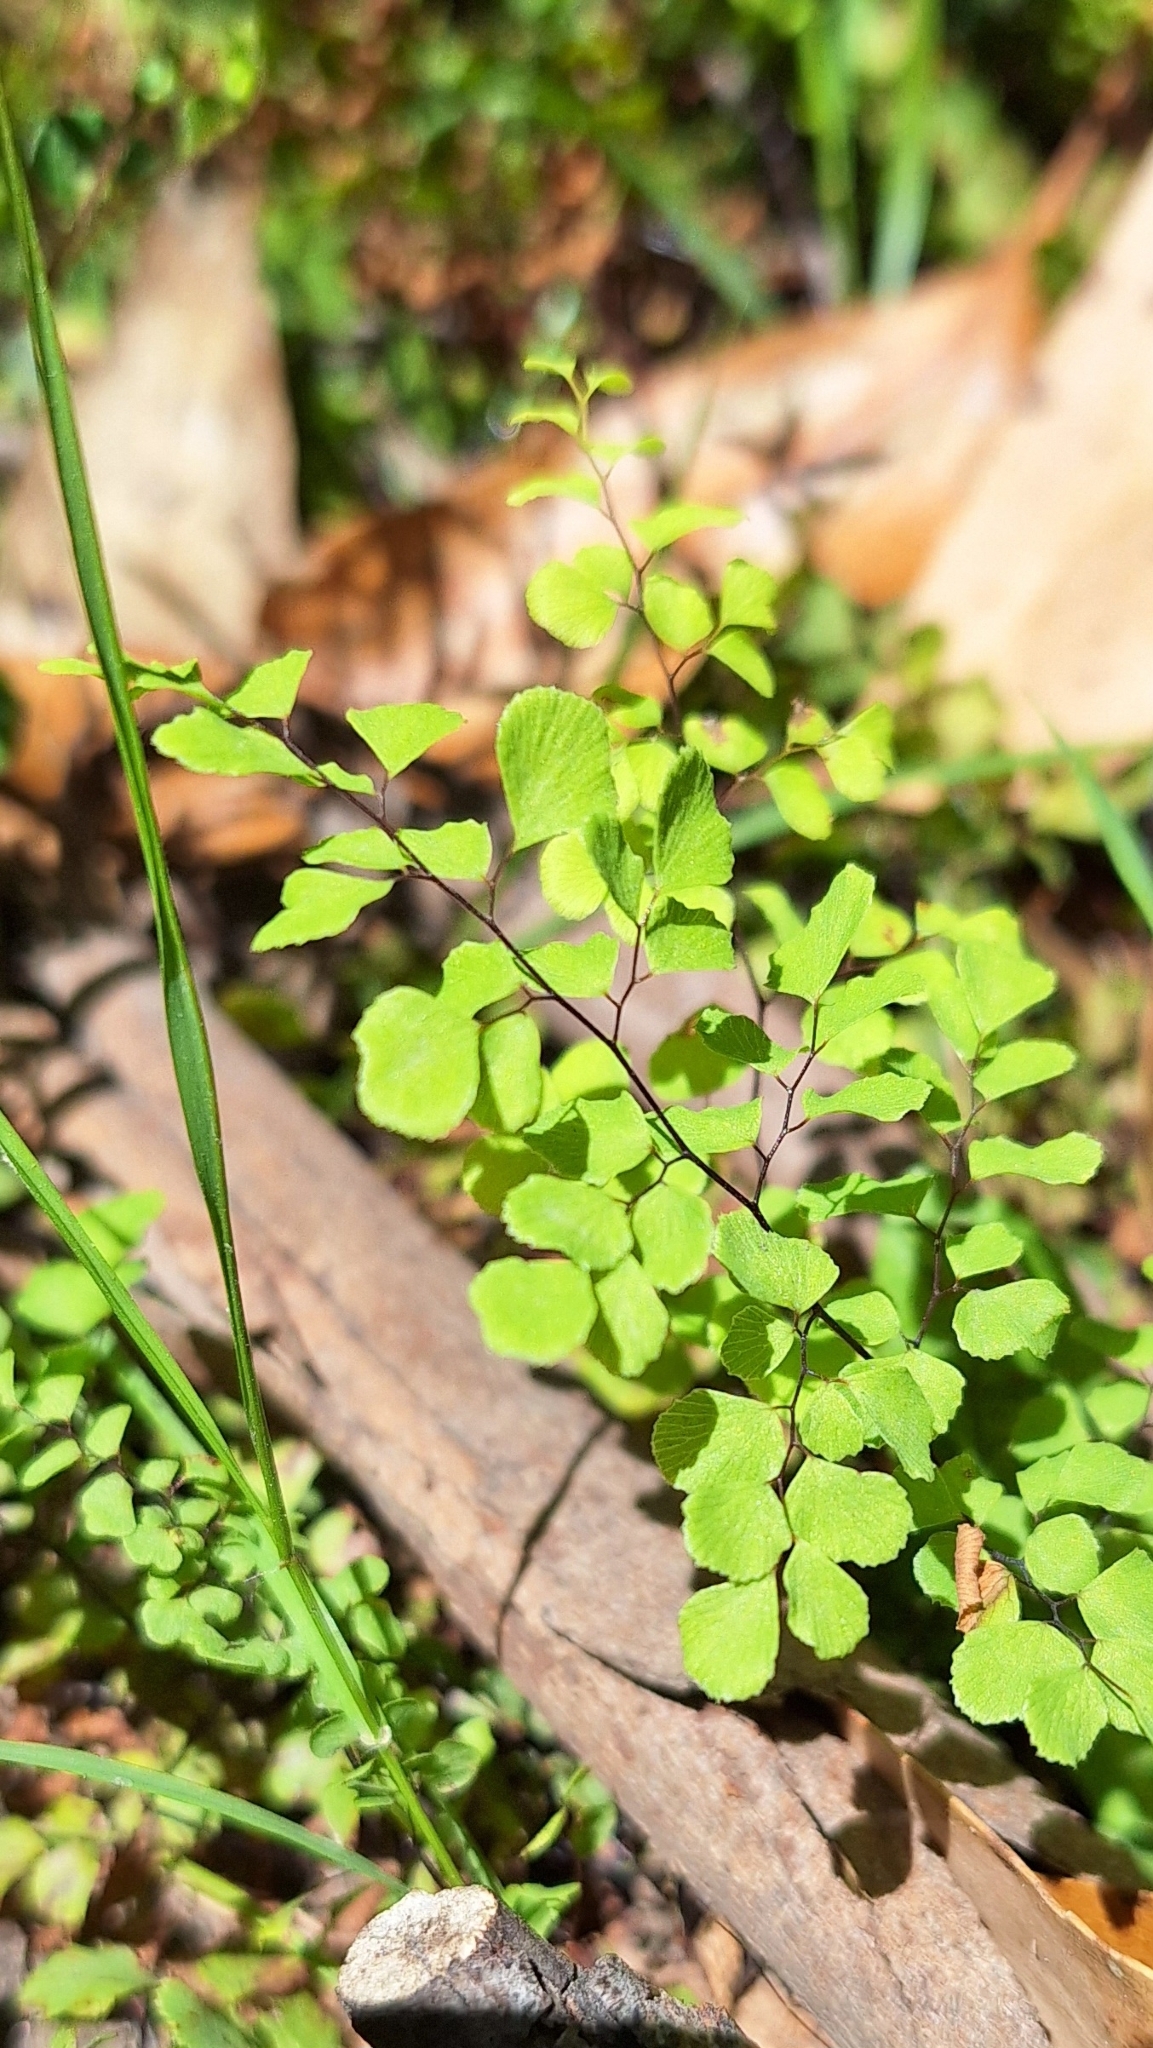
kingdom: Plantae
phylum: Tracheophyta
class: Polypodiopsida
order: Polypodiales
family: Pteridaceae
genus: Adiantum
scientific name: Adiantum aethiopicum
